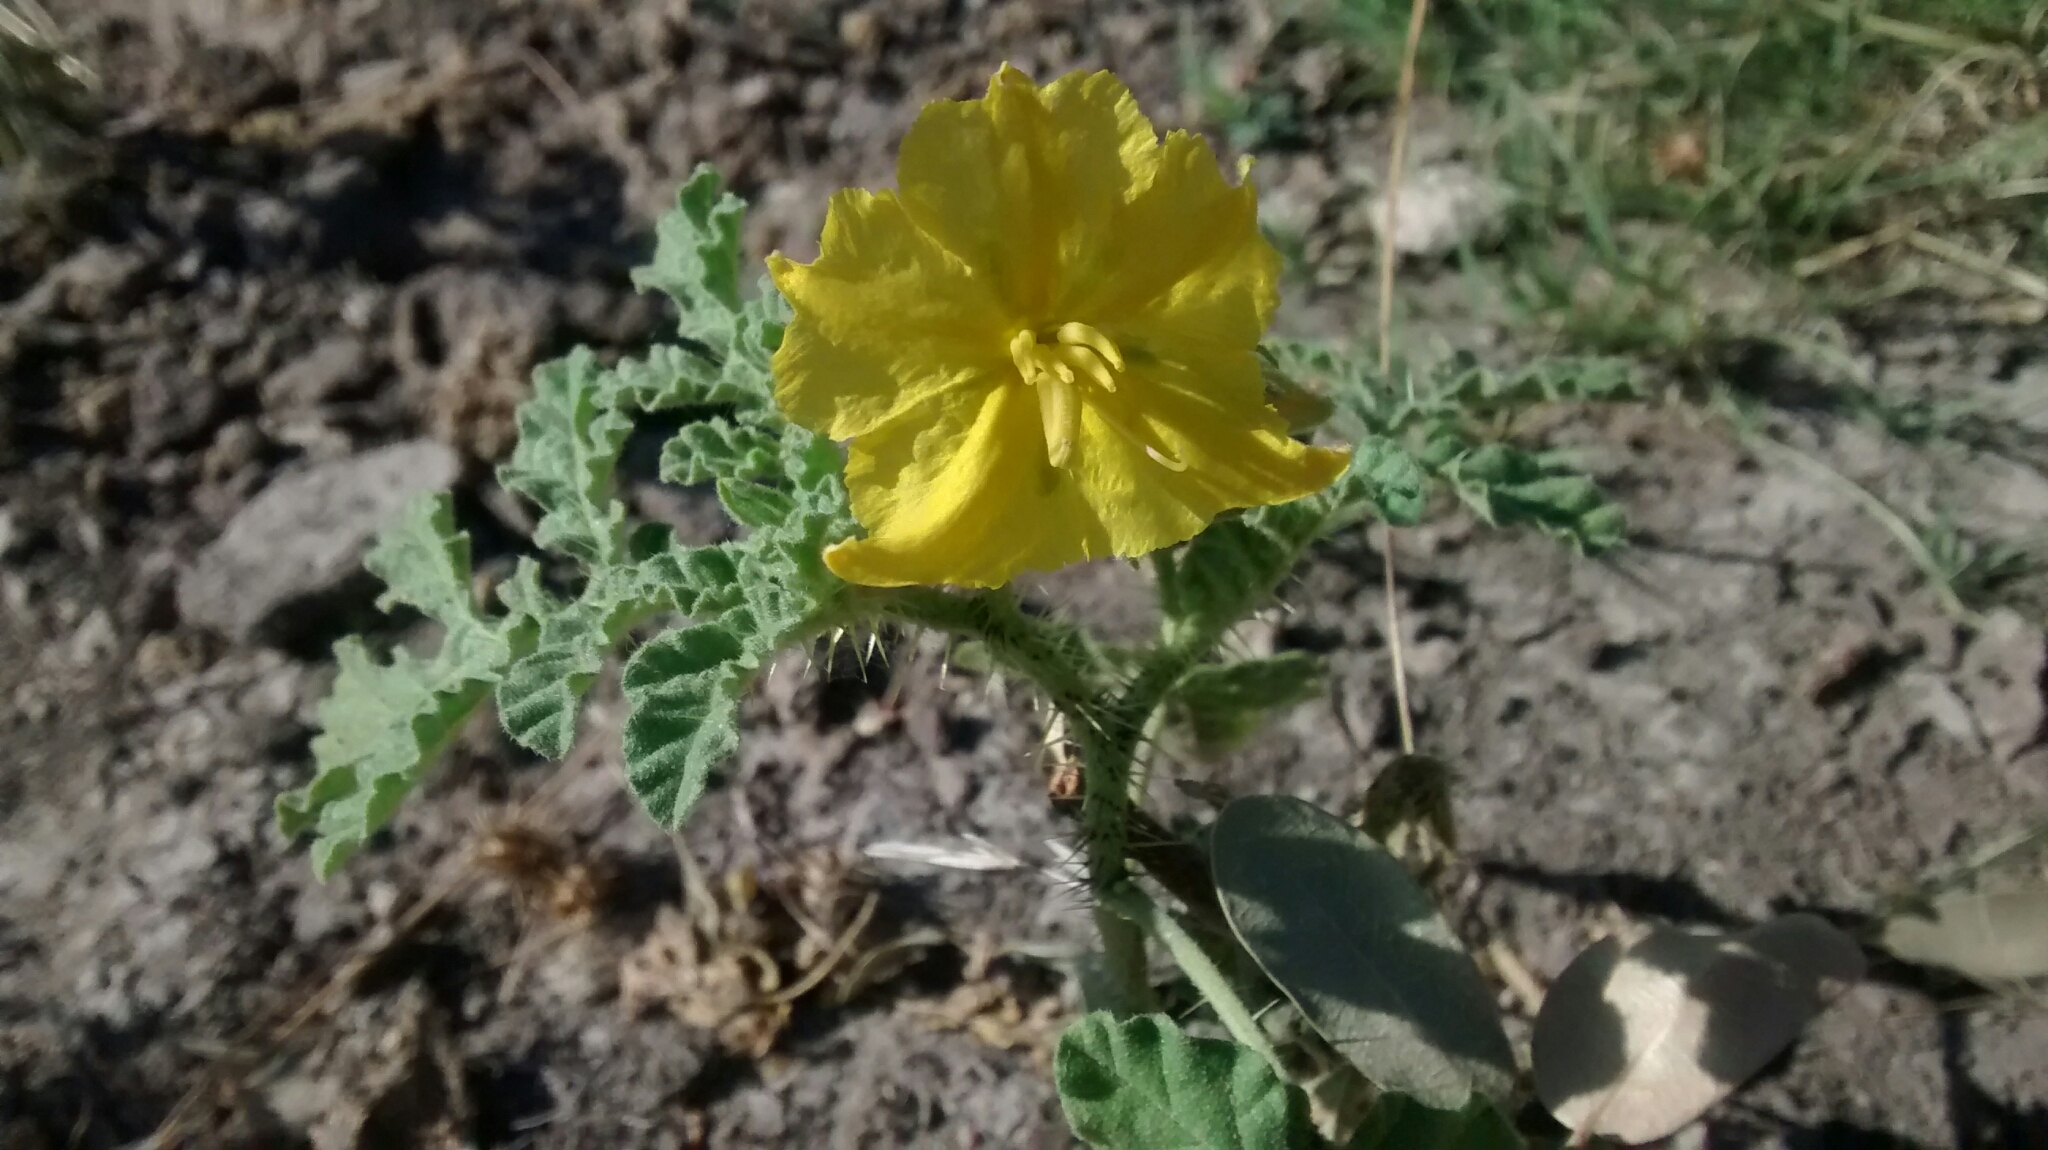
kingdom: Plantae
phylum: Tracheophyta
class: Magnoliopsida
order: Solanales
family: Solanaceae
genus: Solanum
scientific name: Solanum angustifolium
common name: Buffalobur nightshade
